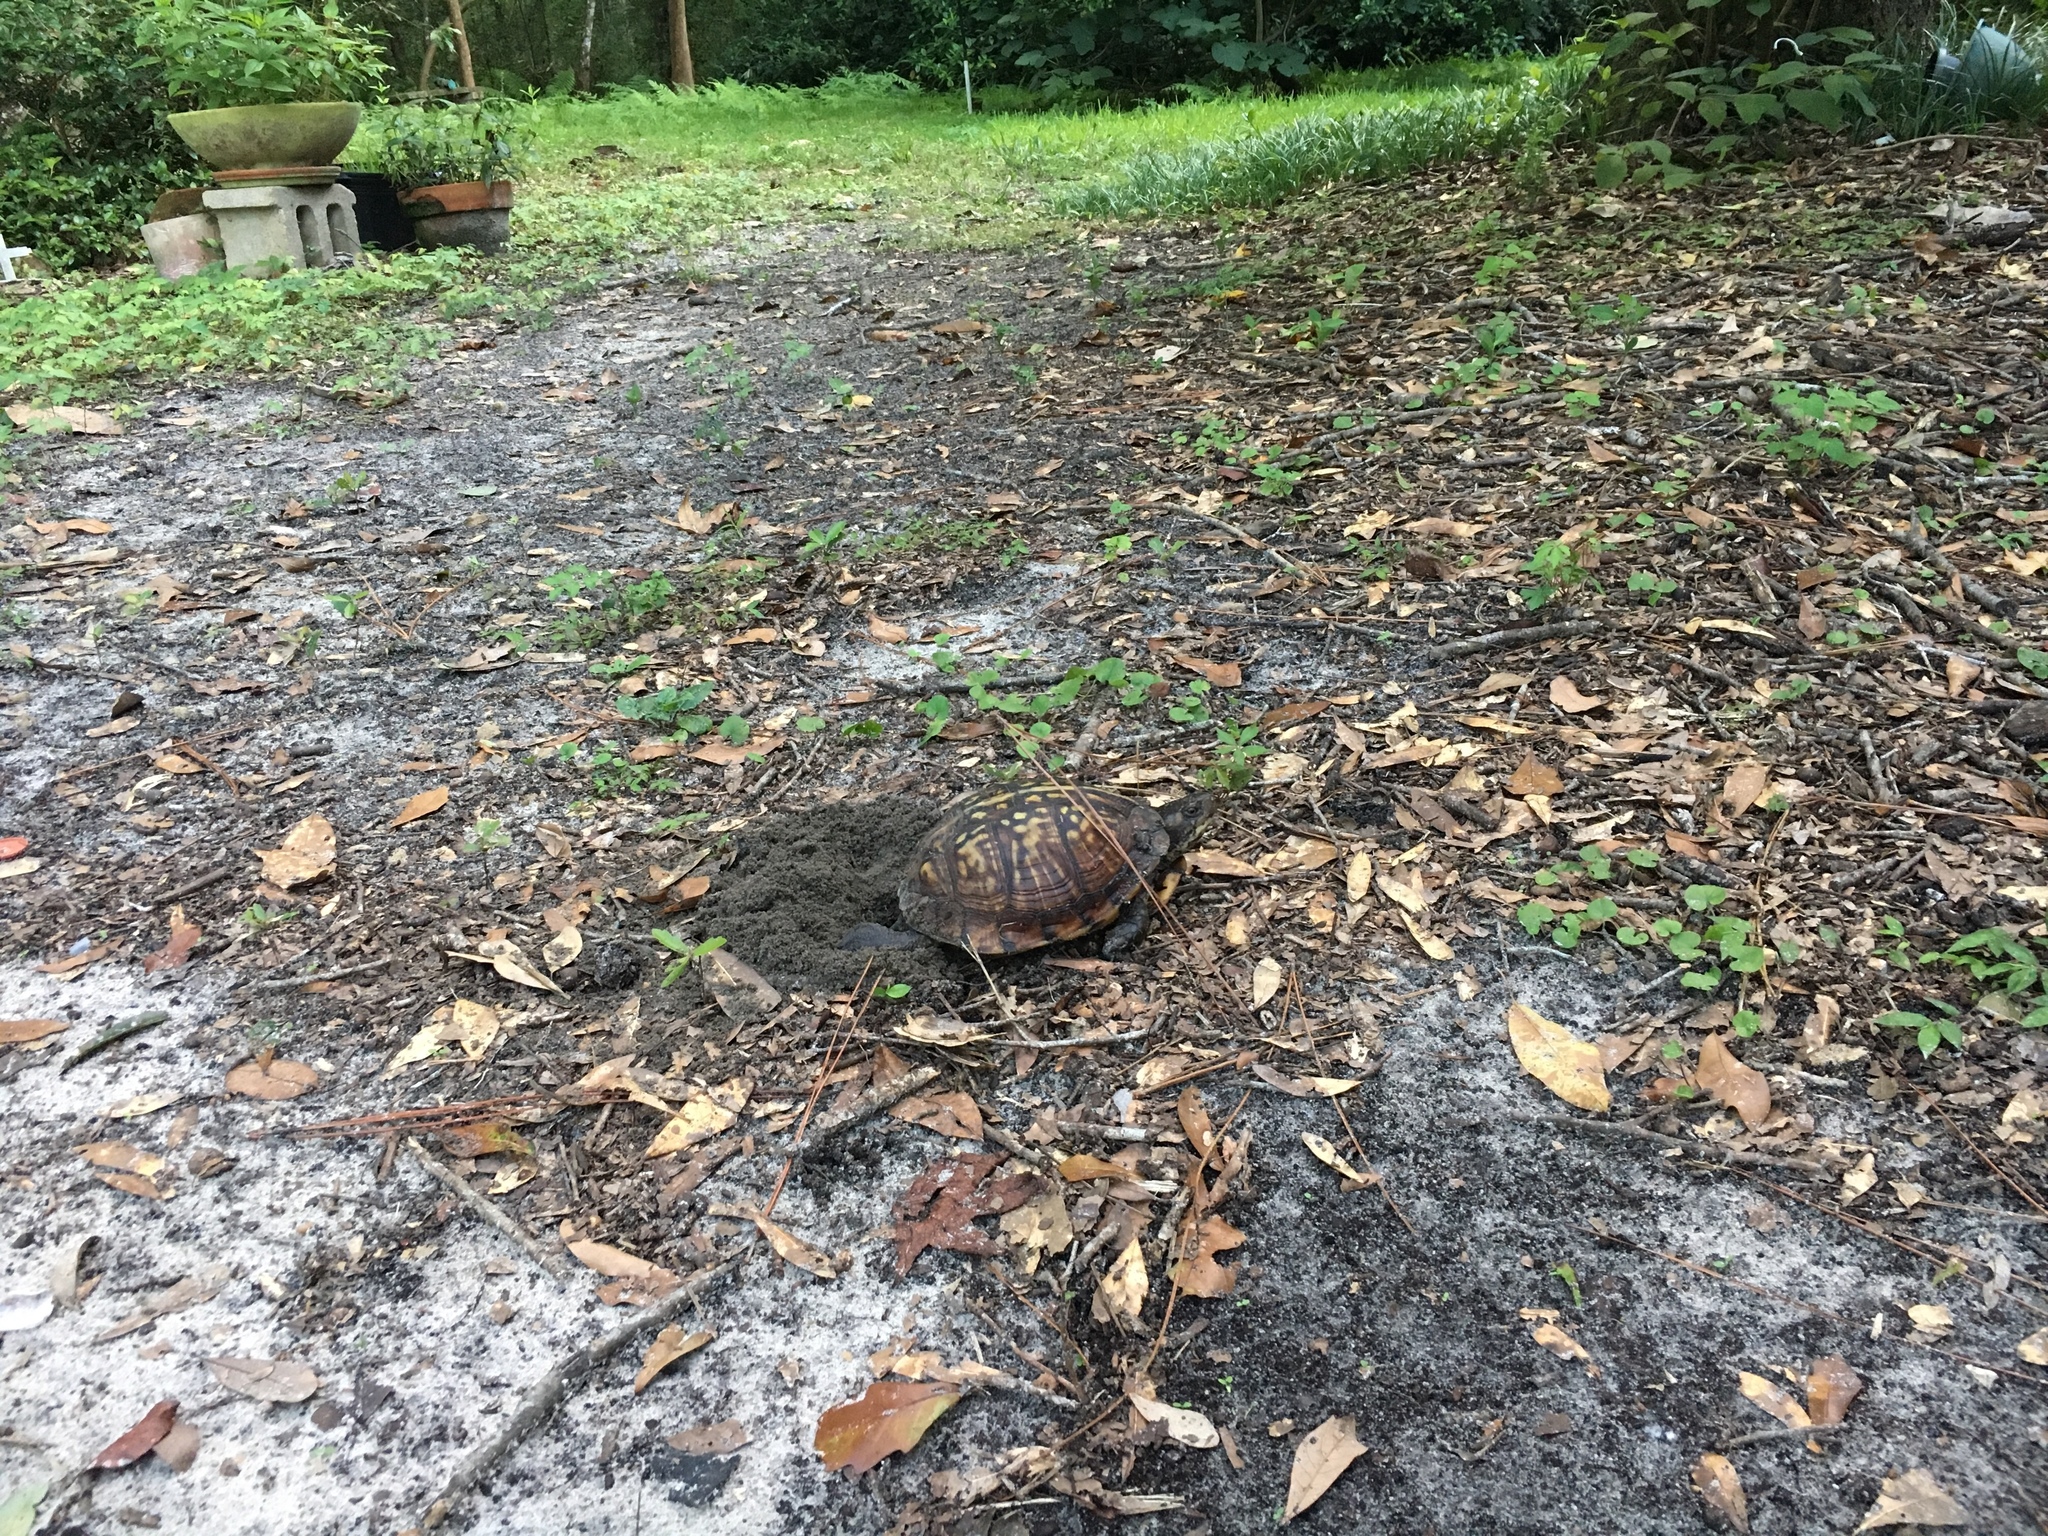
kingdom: Animalia
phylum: Chordata
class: Testudines
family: Emydidae
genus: Terrapene
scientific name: Terrapene carolina
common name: Common box turtle
